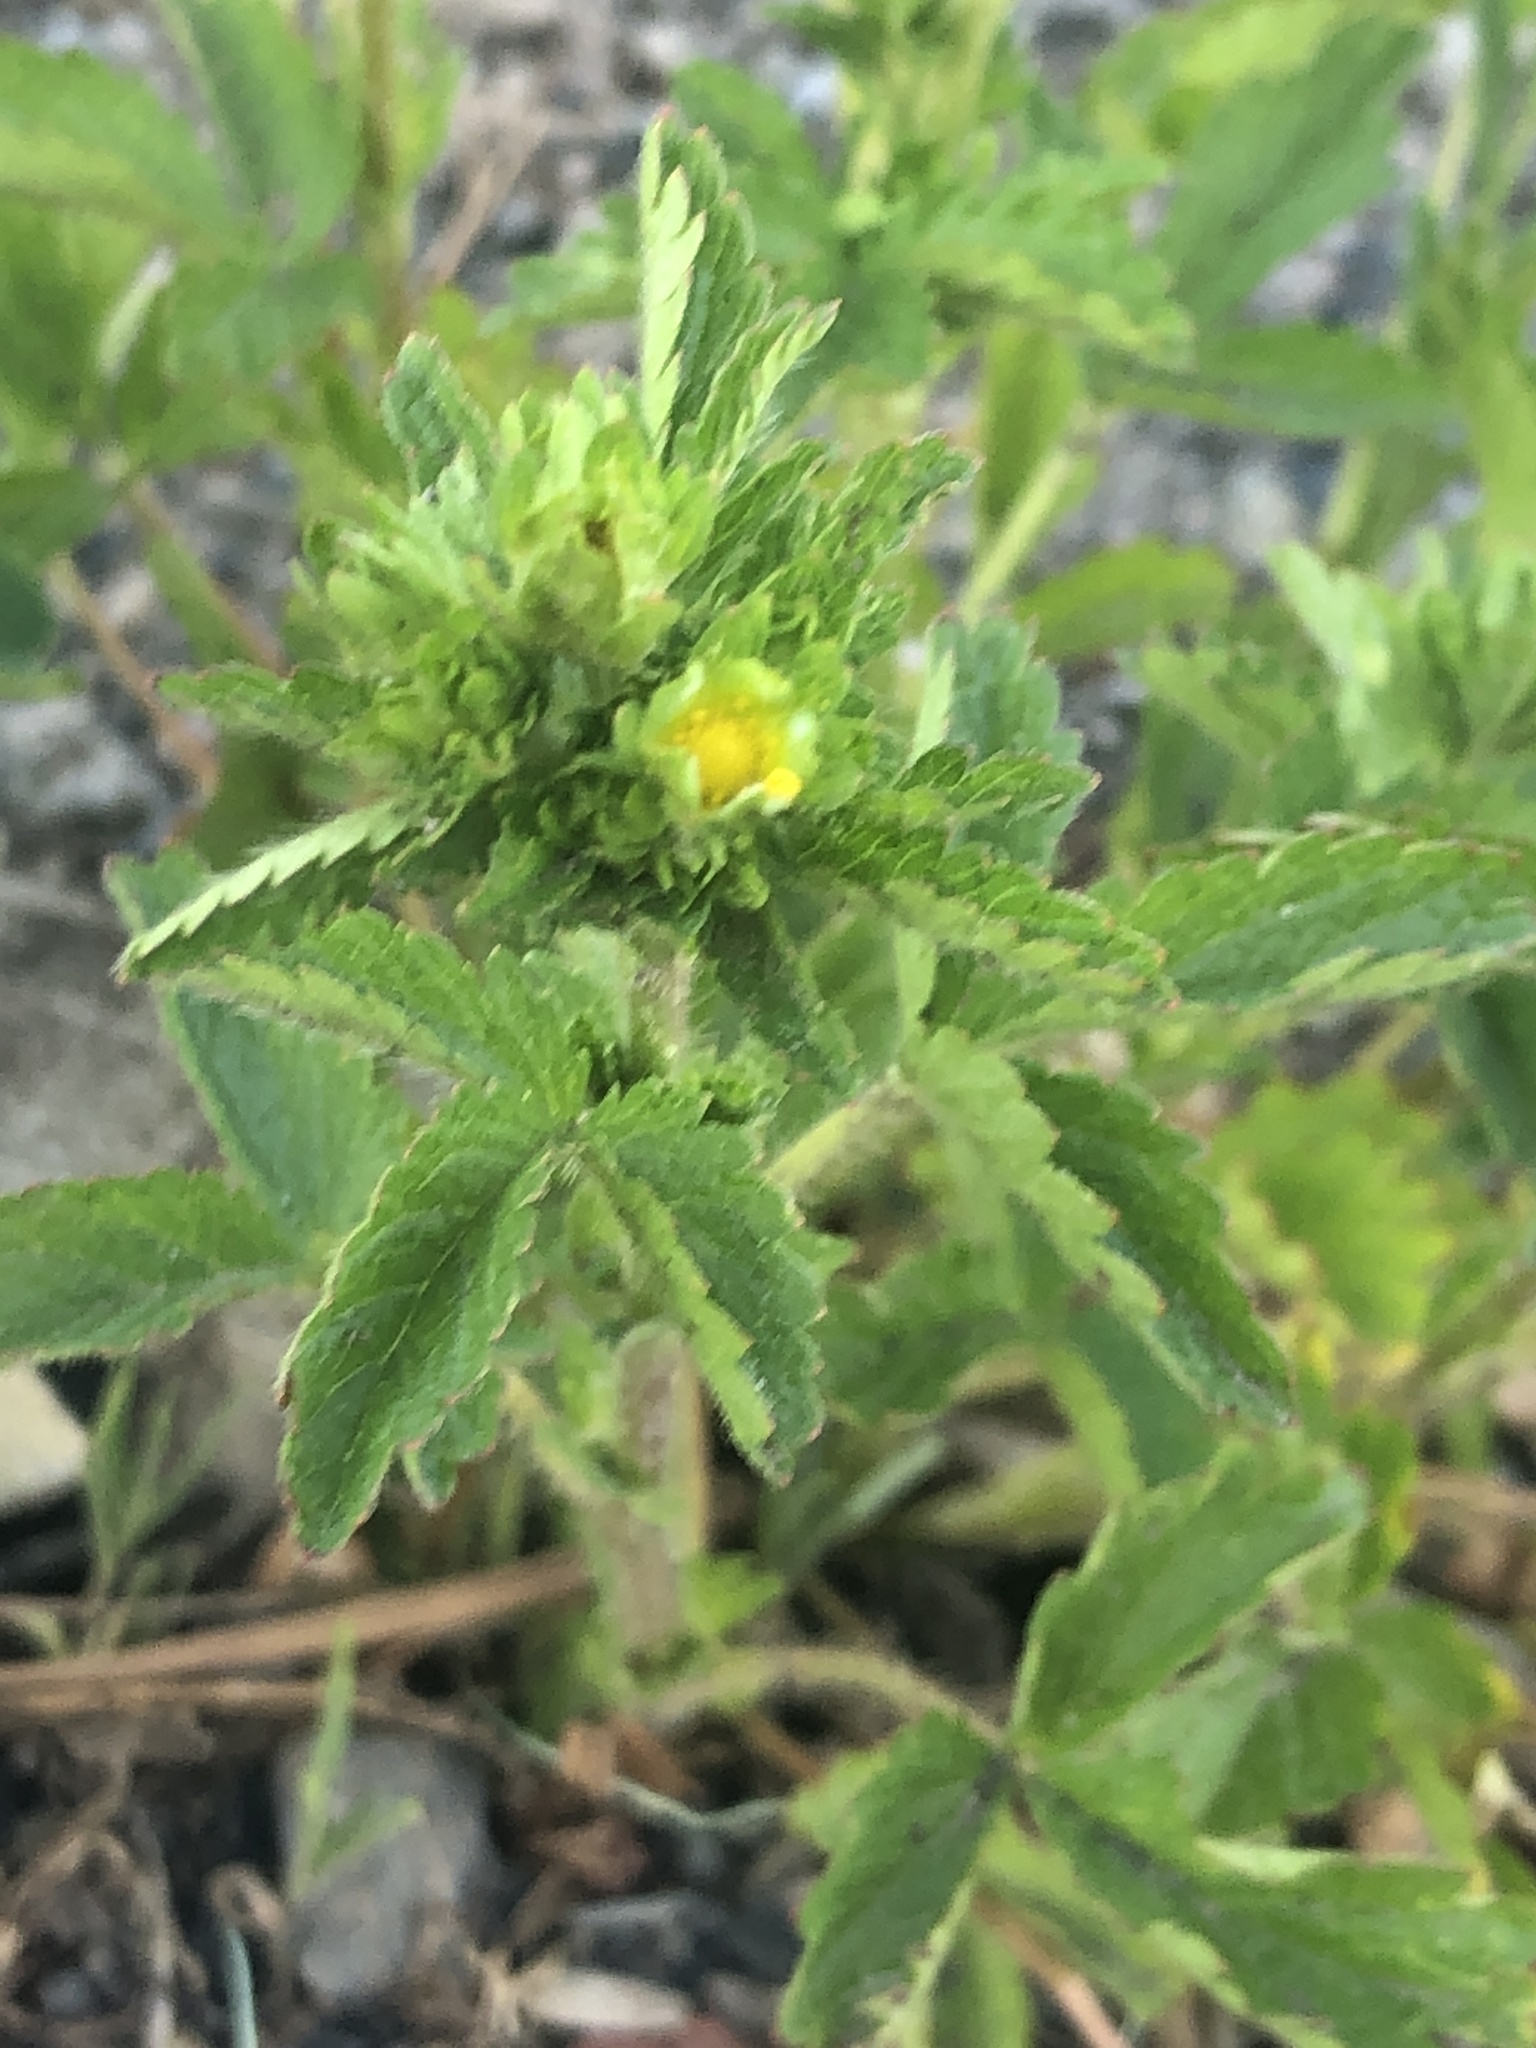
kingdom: Plantae
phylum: Tracheophyta
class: Magnoliopsida
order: Rosales
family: Rosaceae
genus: Potentilla
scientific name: Potentilla norvegica
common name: Ternate-leaved cinquefoil
